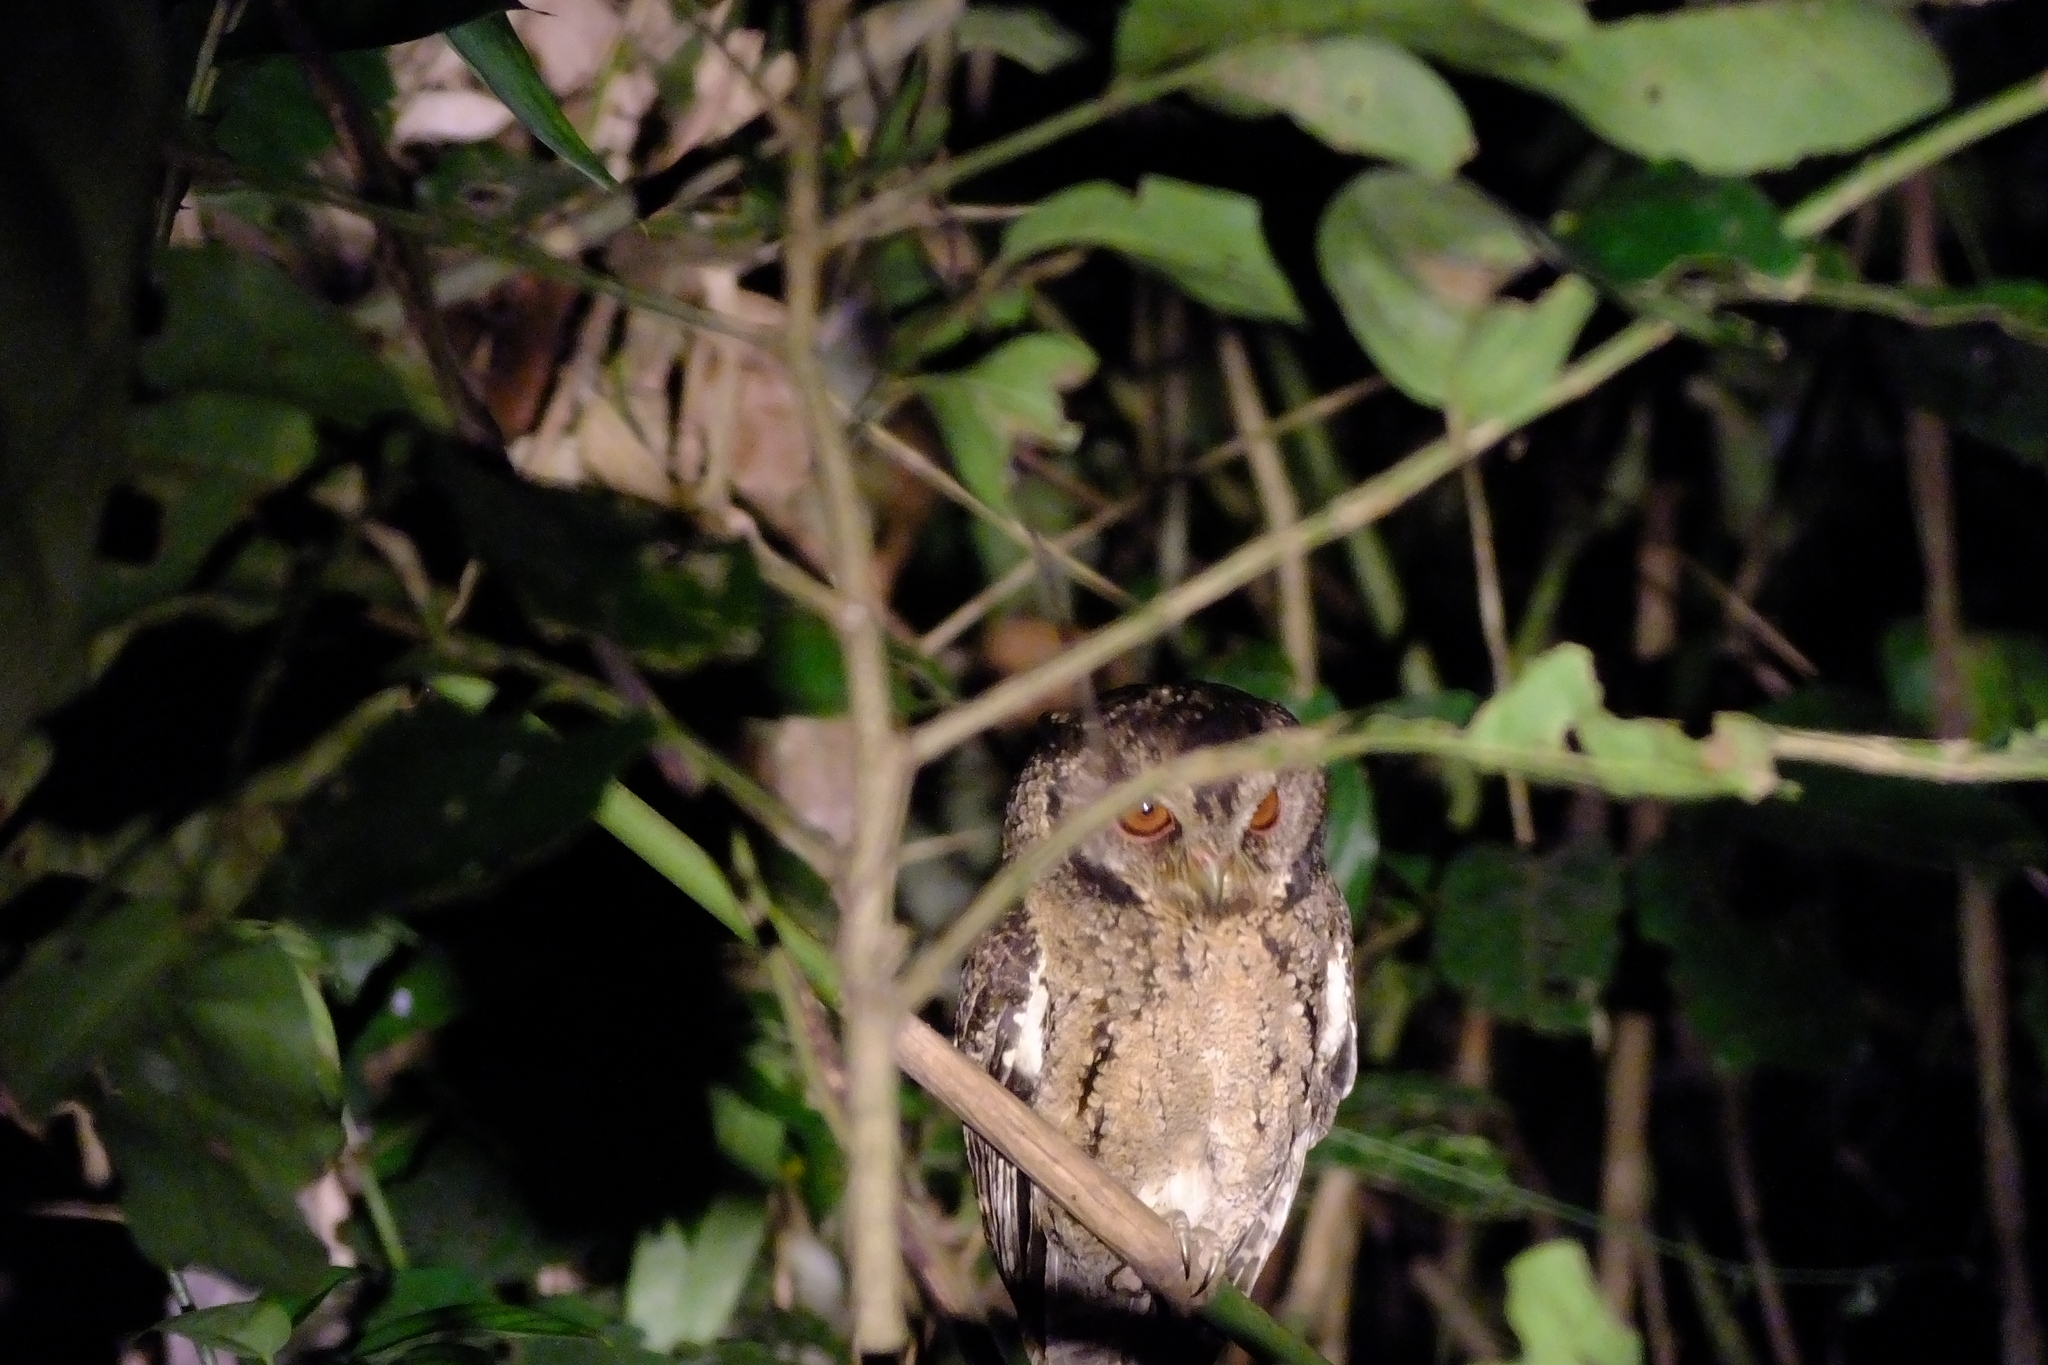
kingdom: Animalia
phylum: Chordata
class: Aves
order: Strigiformes
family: Strigidae
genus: Otus
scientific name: Otus lempiji
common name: Sunda scops-owl
